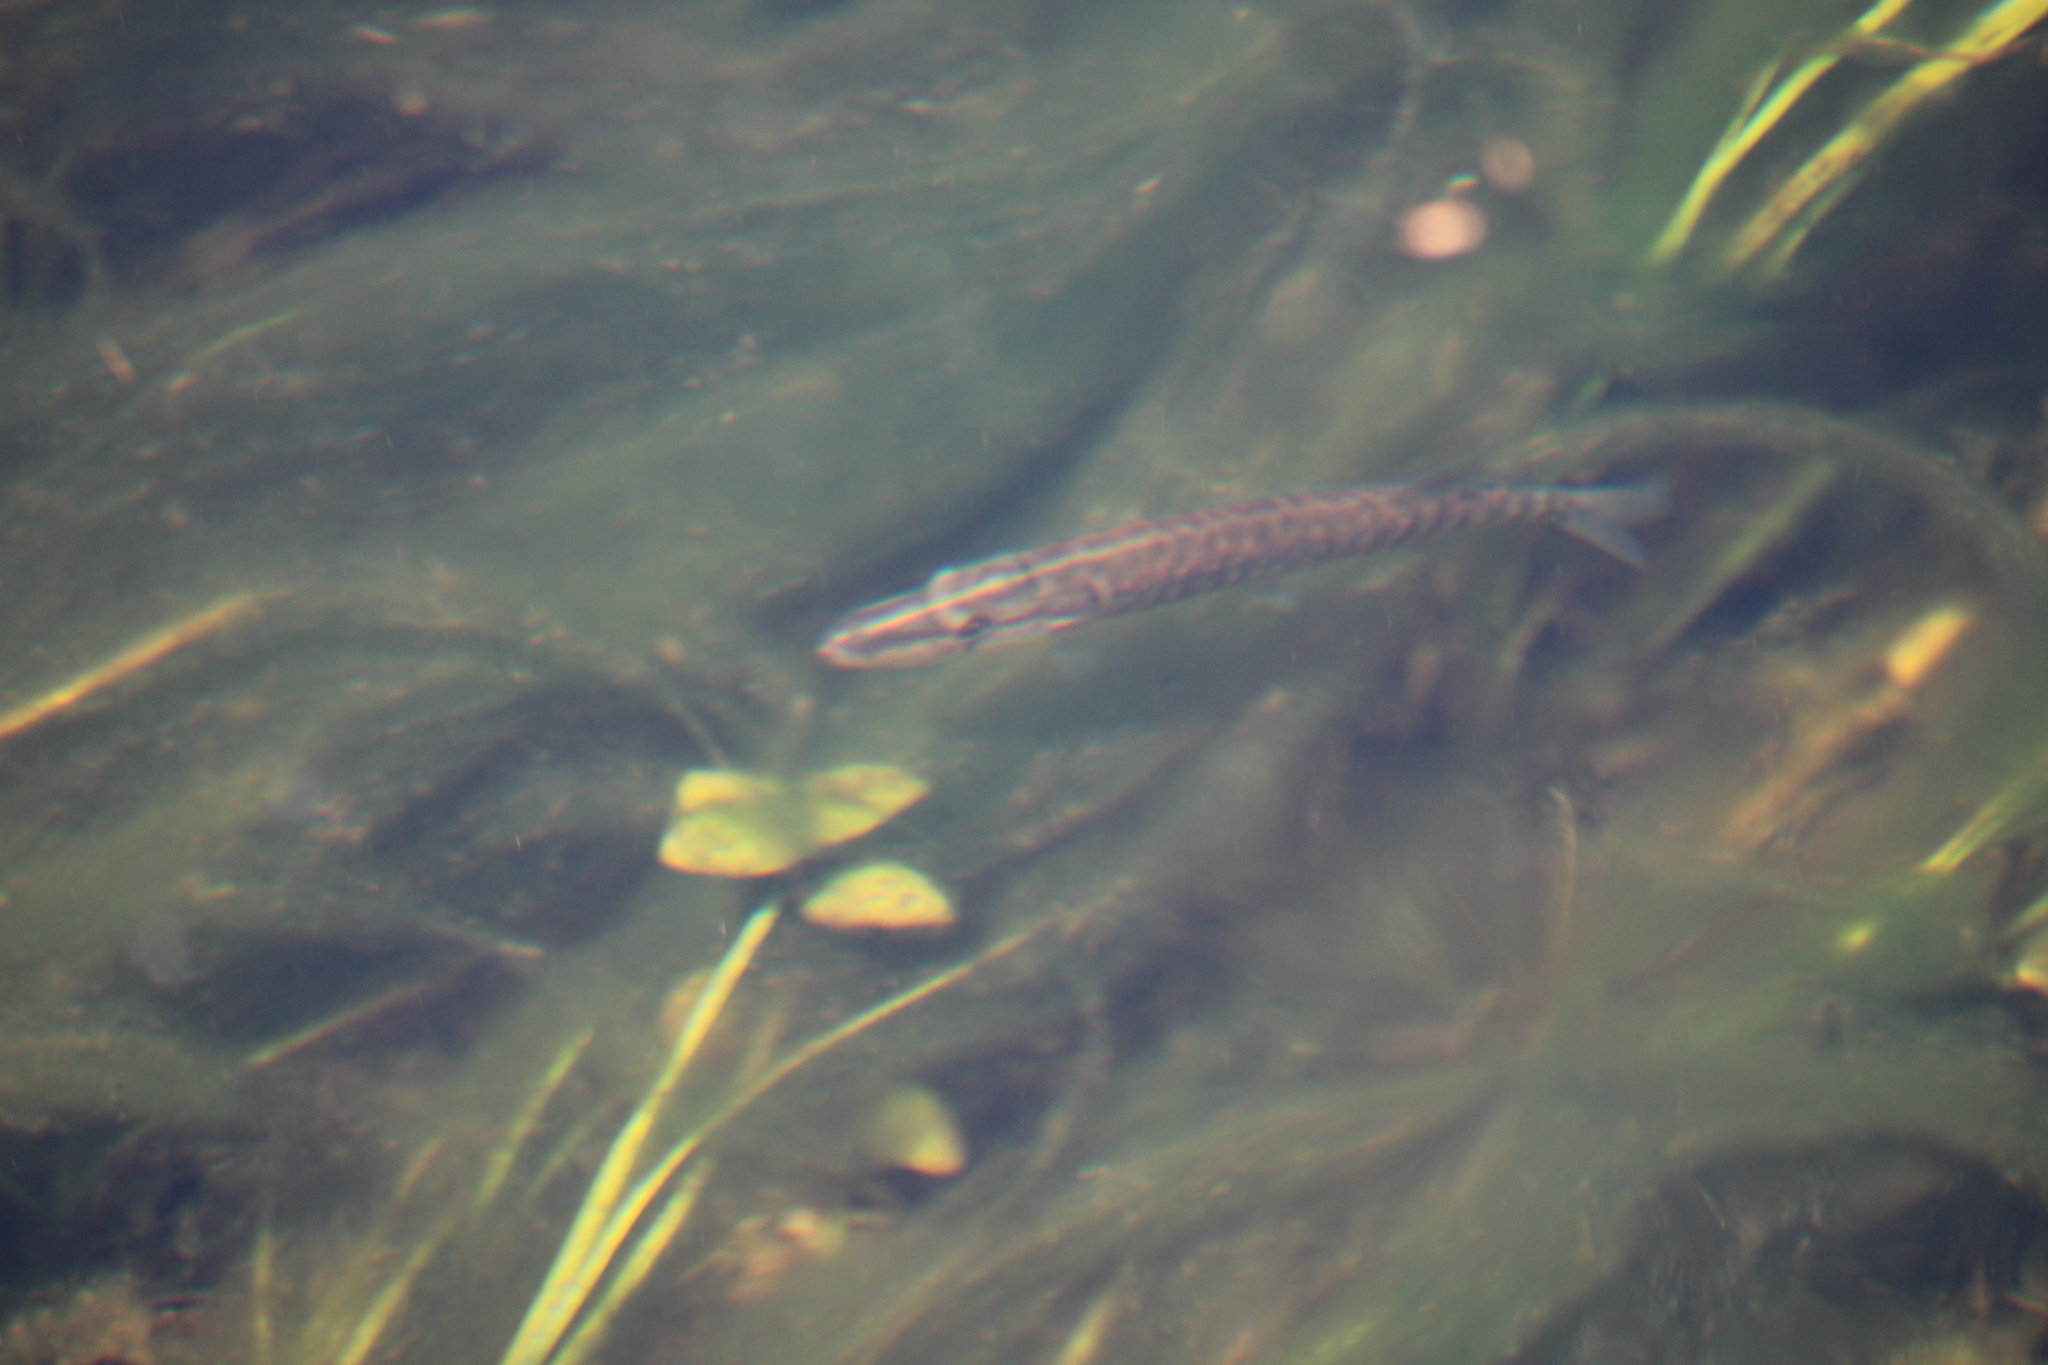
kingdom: Animalia
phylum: Chordata
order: Esociformes
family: Esocidae
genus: Esox
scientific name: Esox lucius
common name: Northern pike
